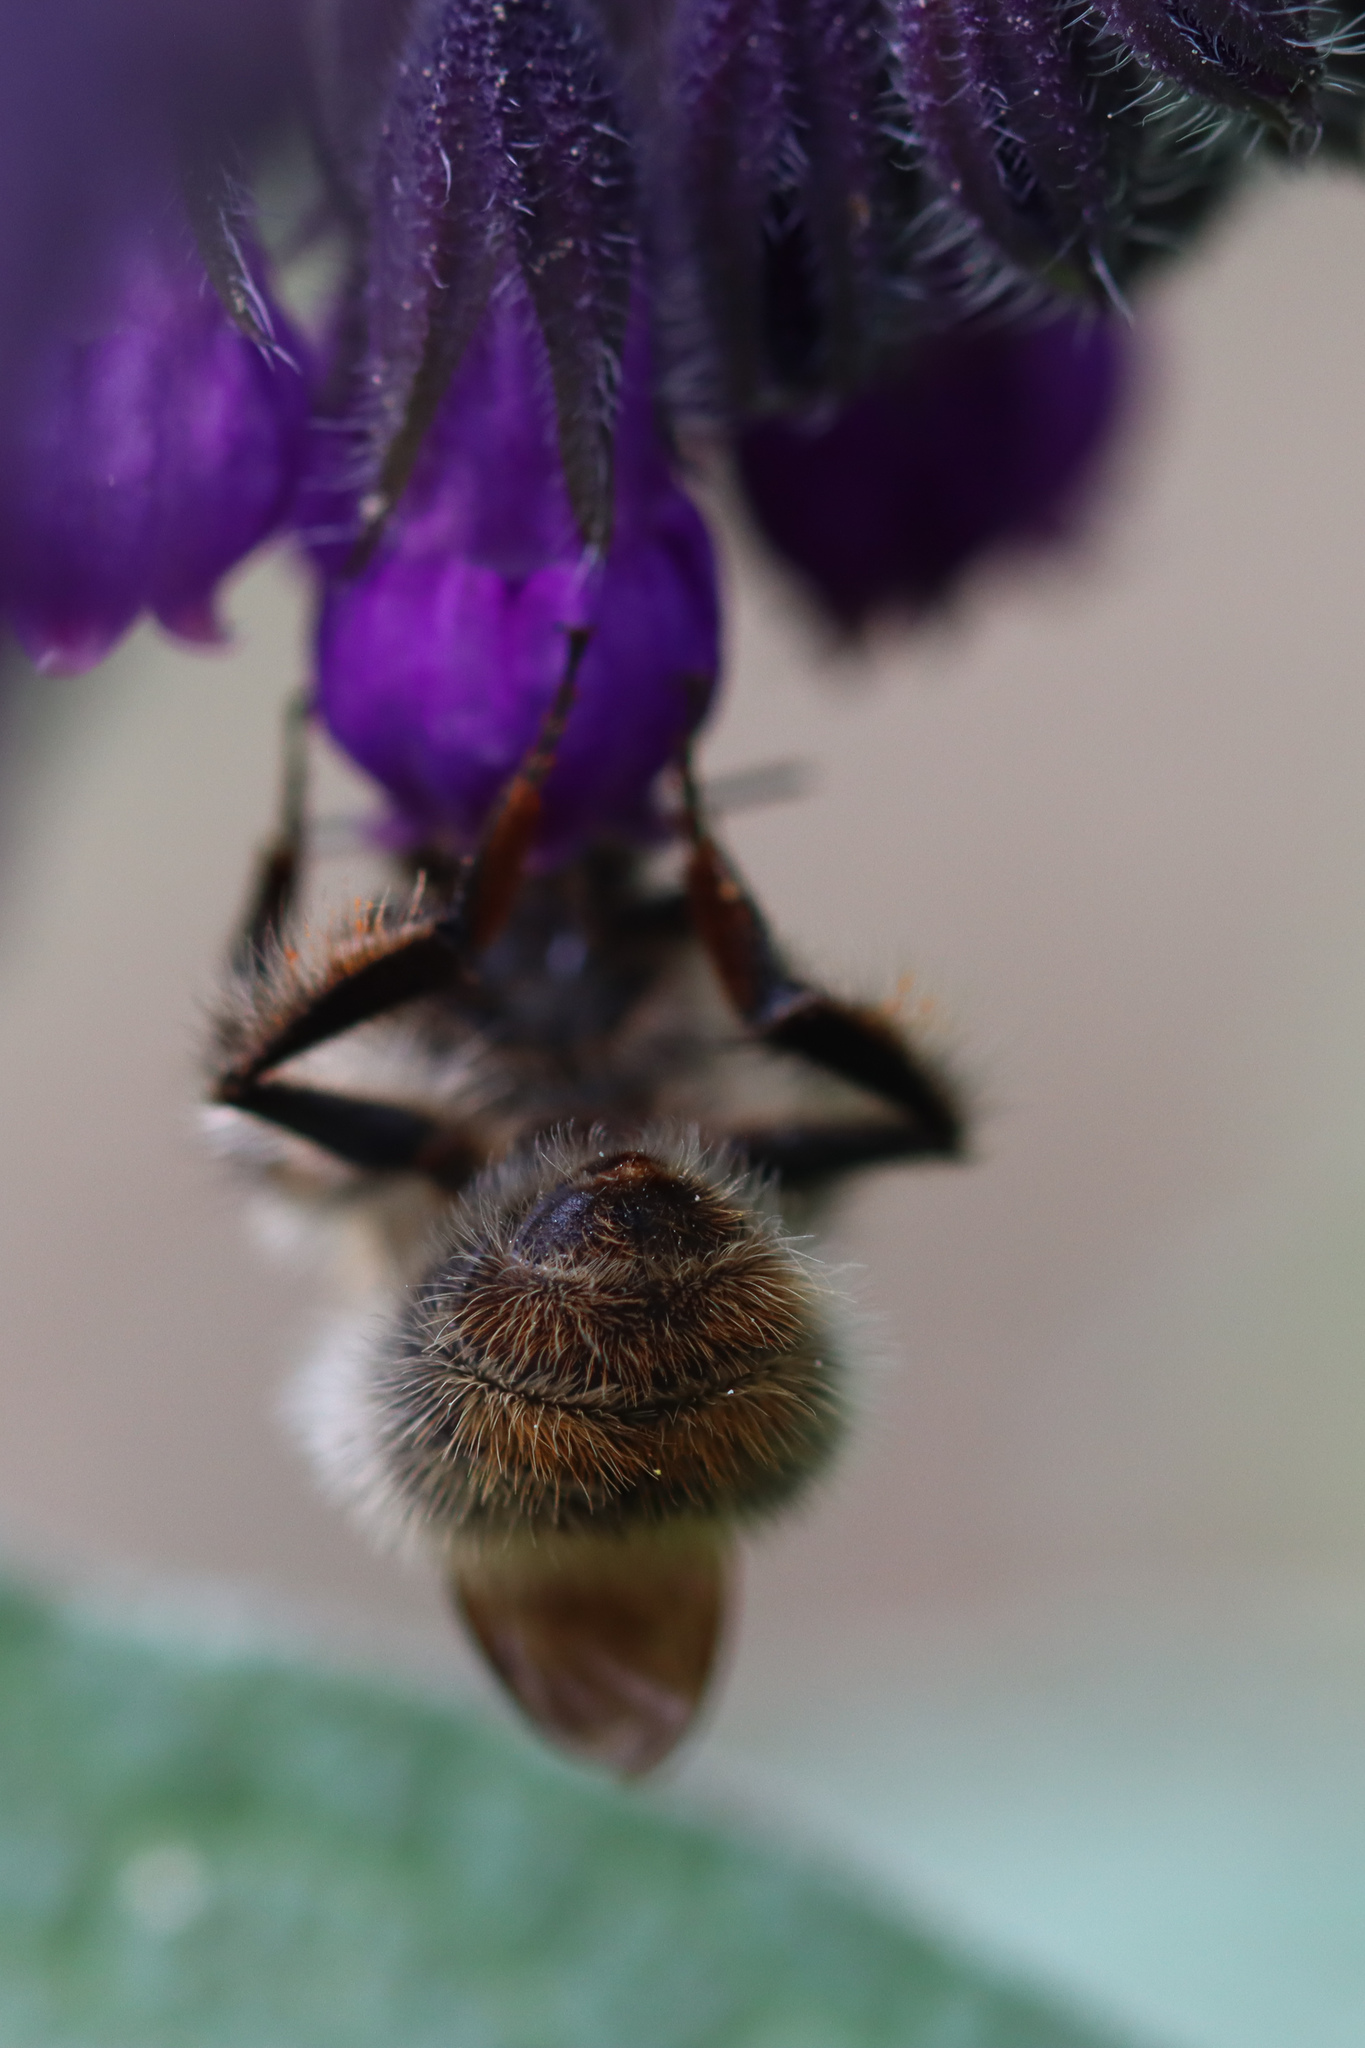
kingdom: Animalia
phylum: Arthropoda
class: Insecta
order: Hymenoptera
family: Apidae
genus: Bombus
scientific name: Bombus pascuorum
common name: Common carder bee
